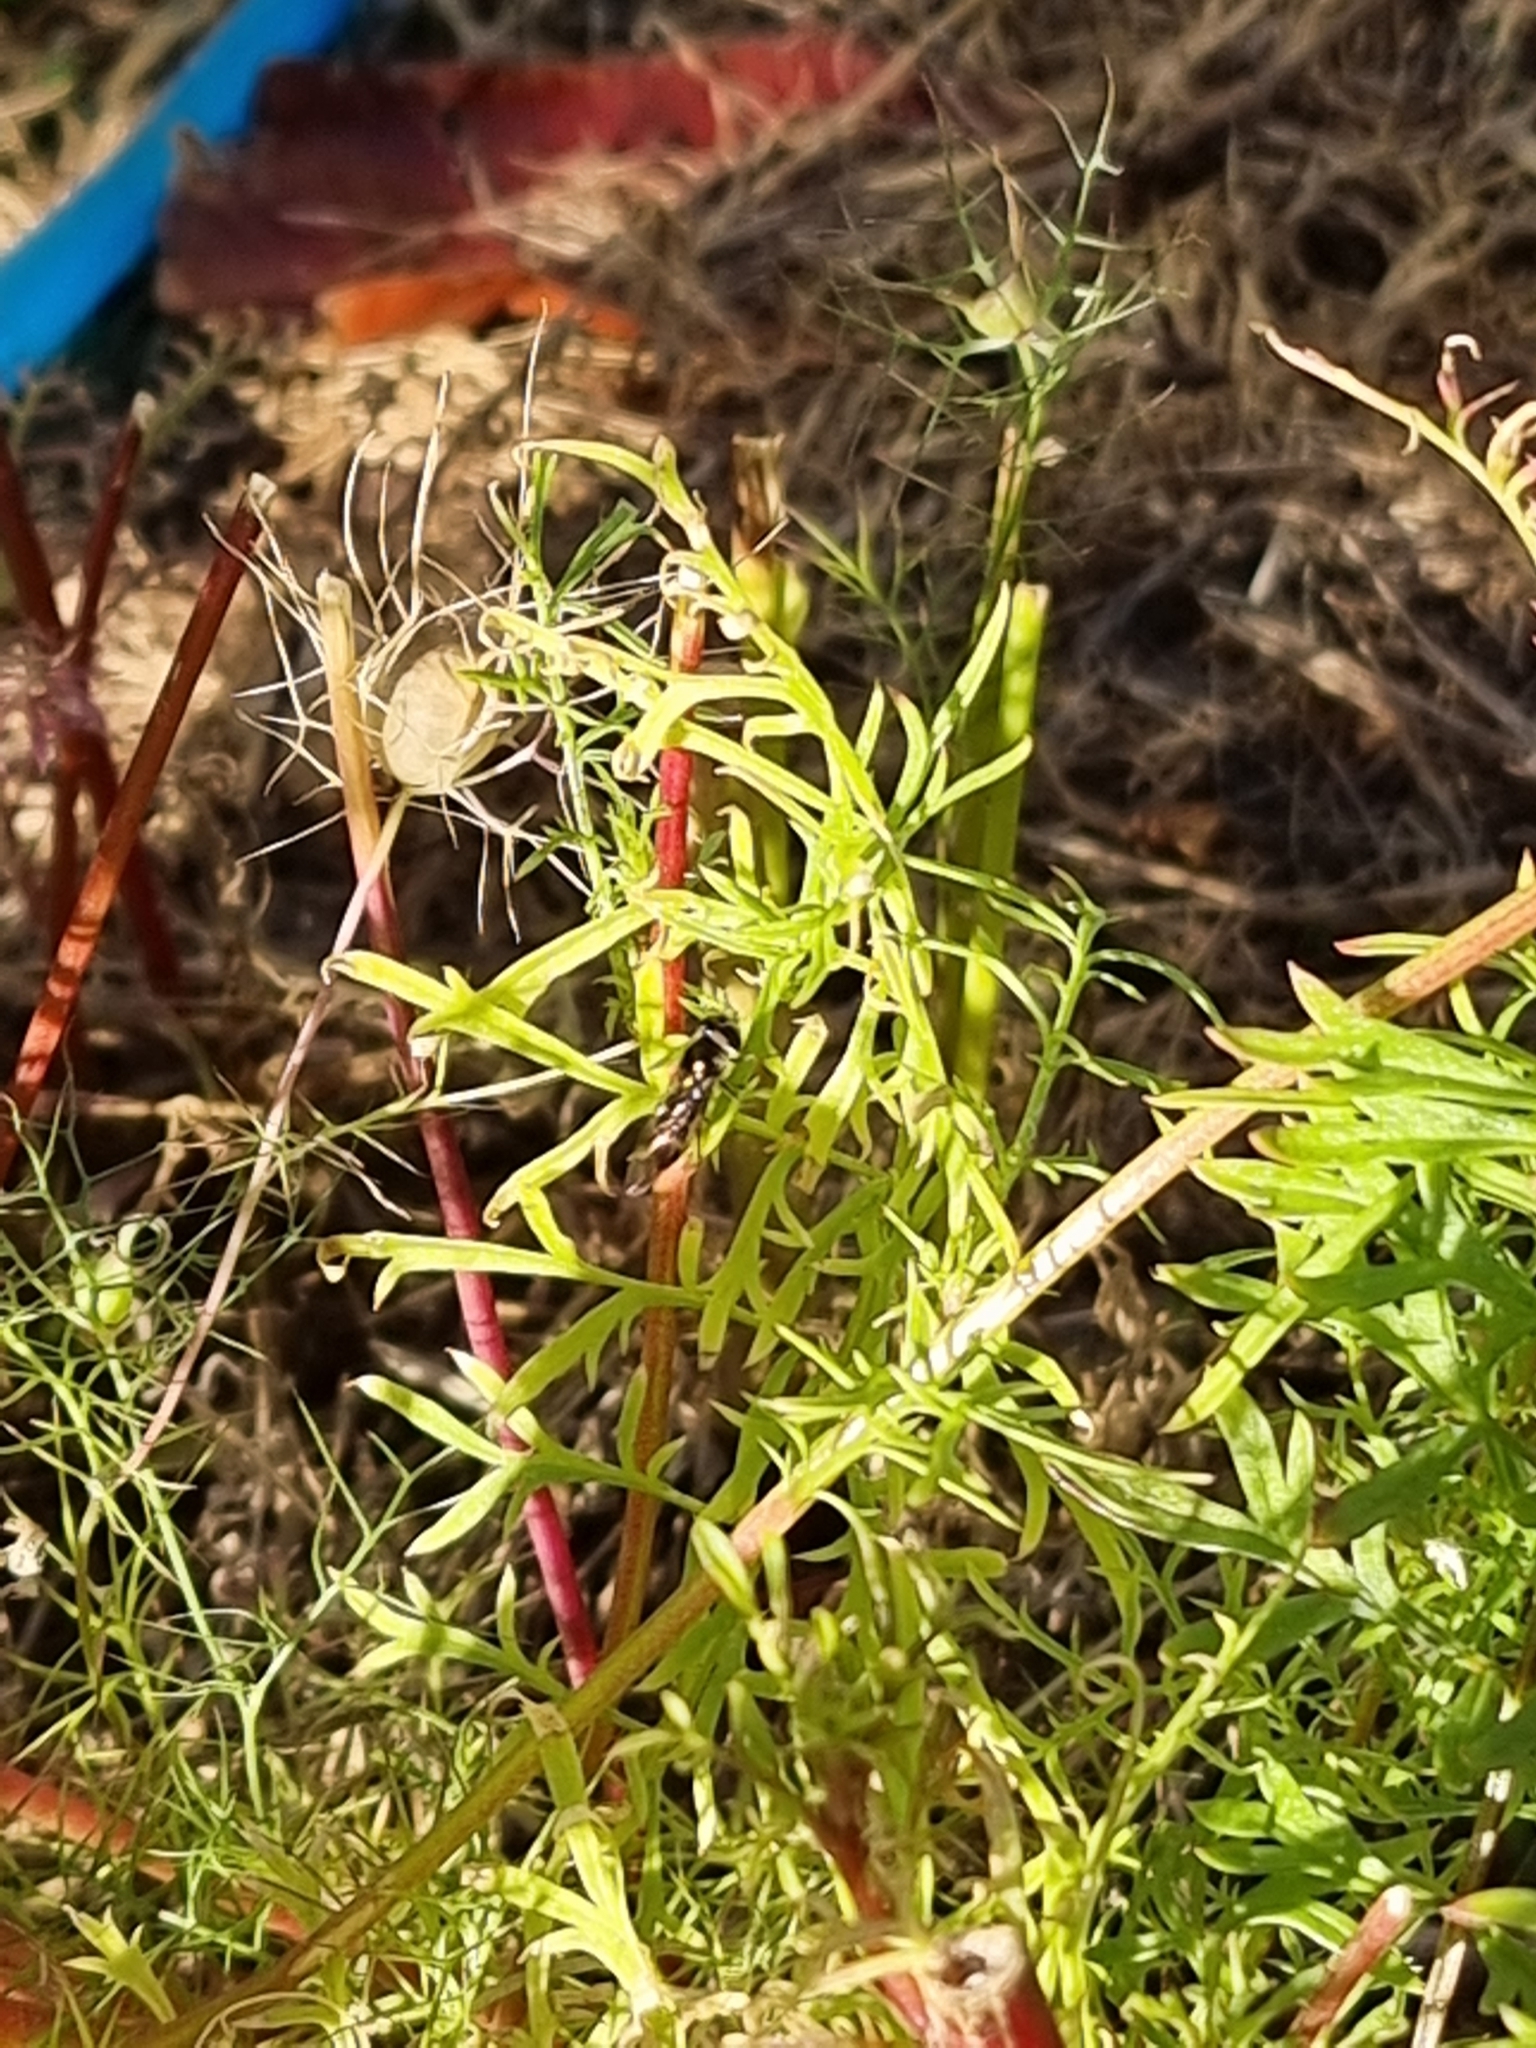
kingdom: Animalia
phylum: Arthropoda
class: Insecta
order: Diptera
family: Syrphidae
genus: Melangyna
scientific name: Melangyna novaezelandiae
